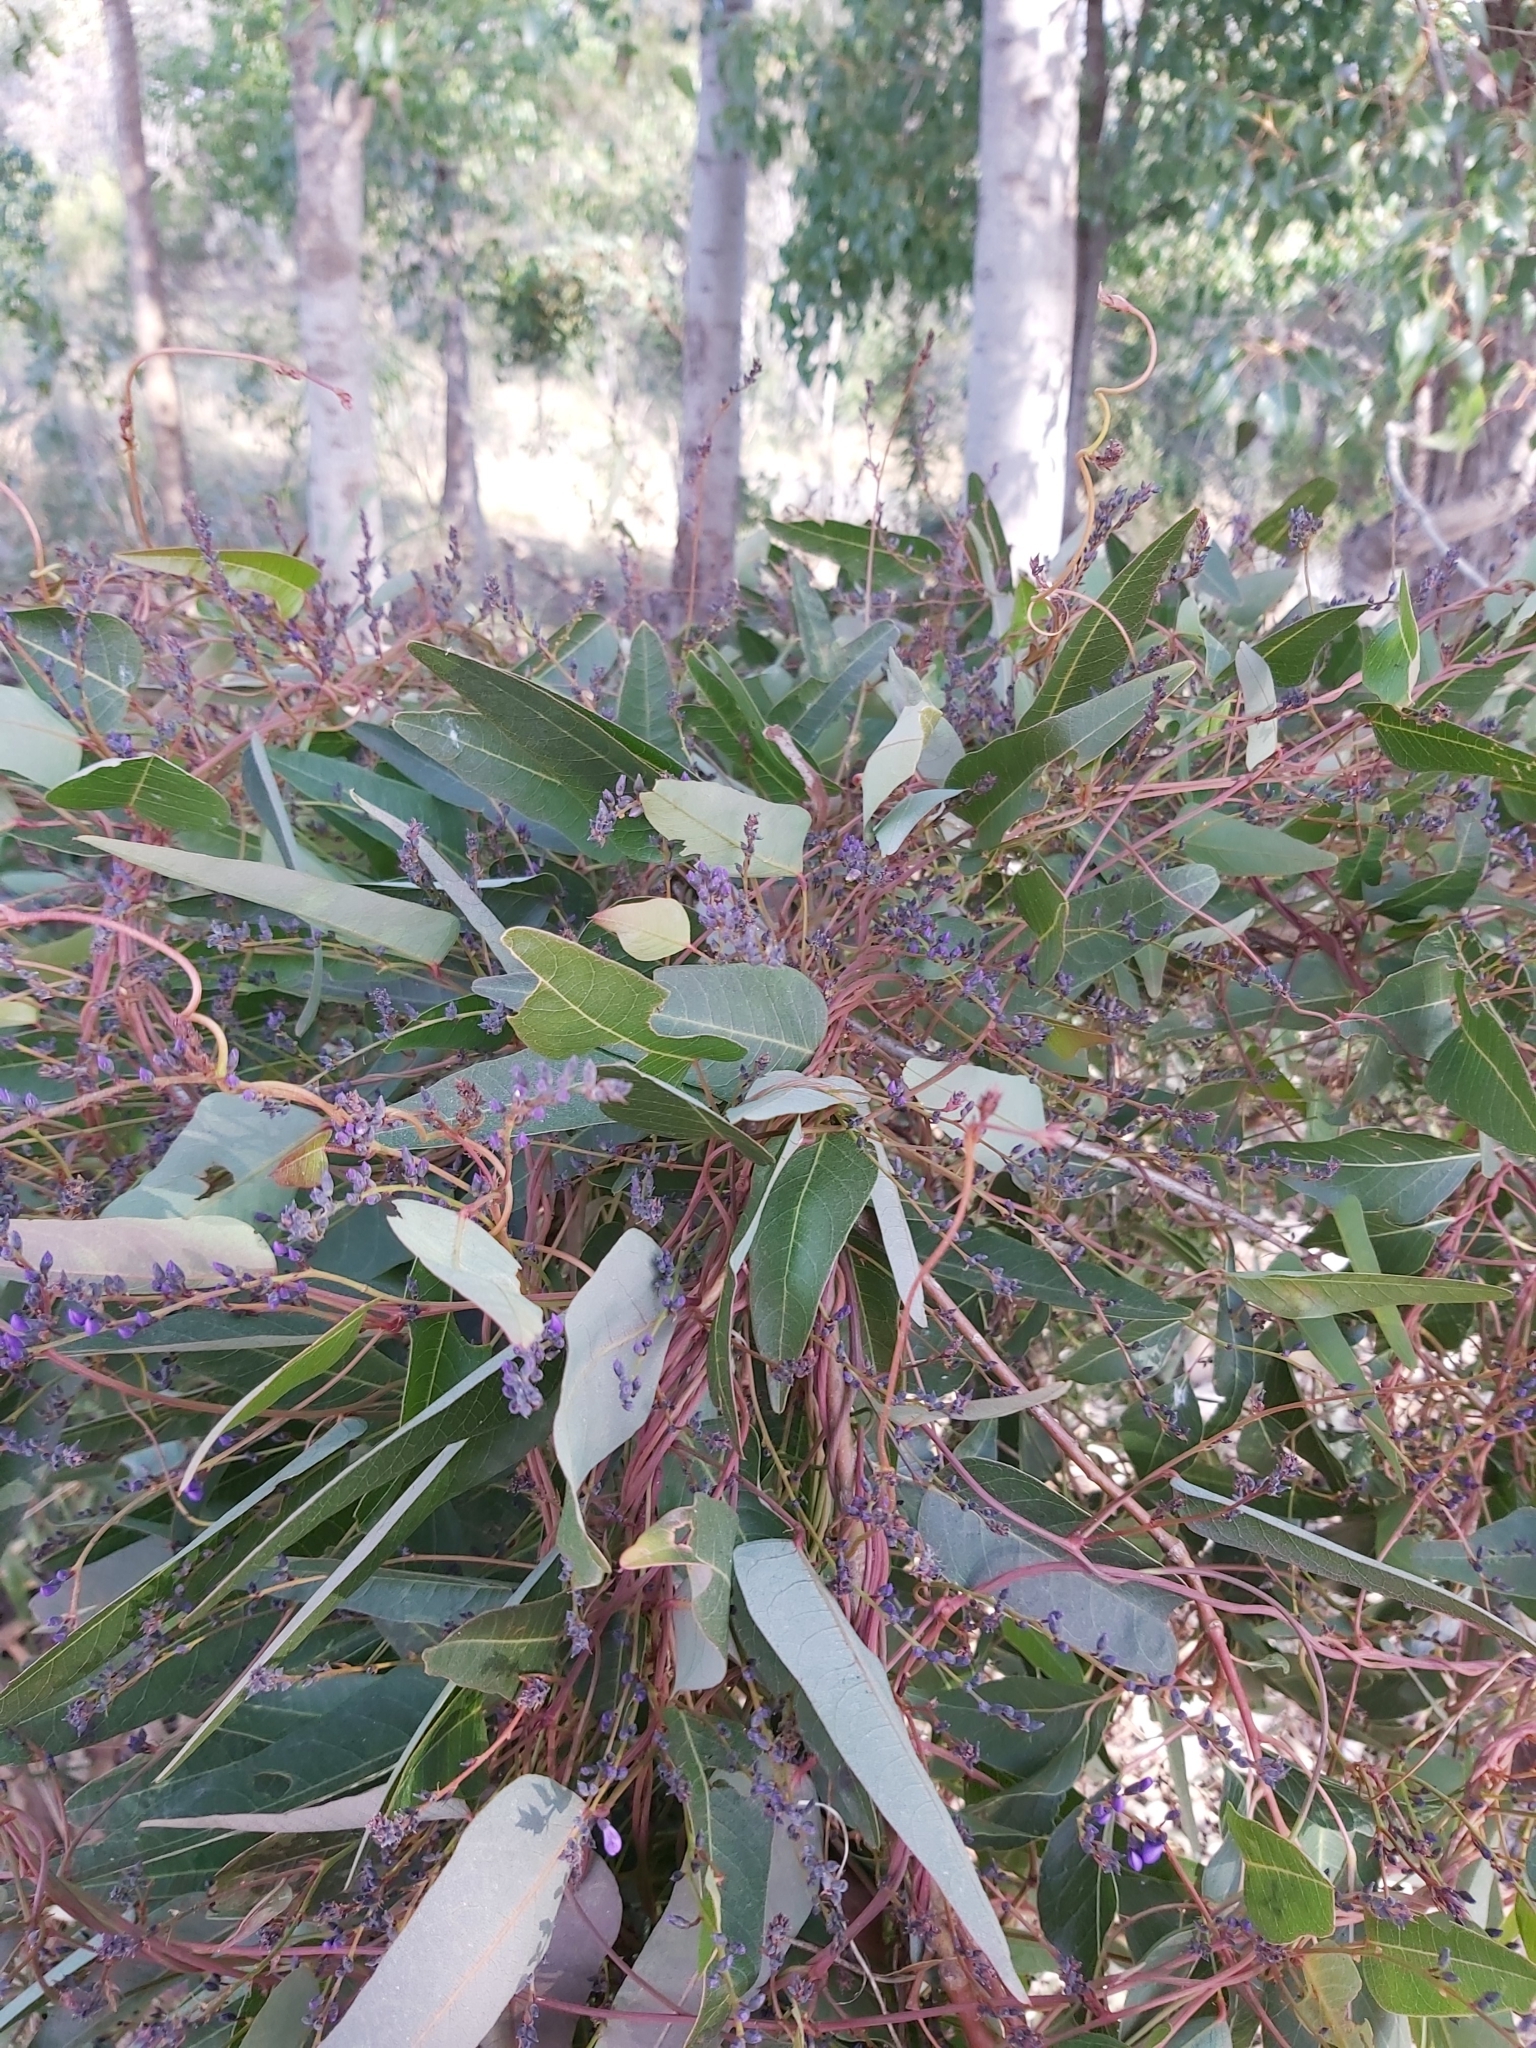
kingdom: Plantae
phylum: Tracheophyta
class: Magnoliopsida
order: Fabales
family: Fabaceae
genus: Hardenbergia
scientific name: Hardenbergia violacea
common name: Coral-pea
